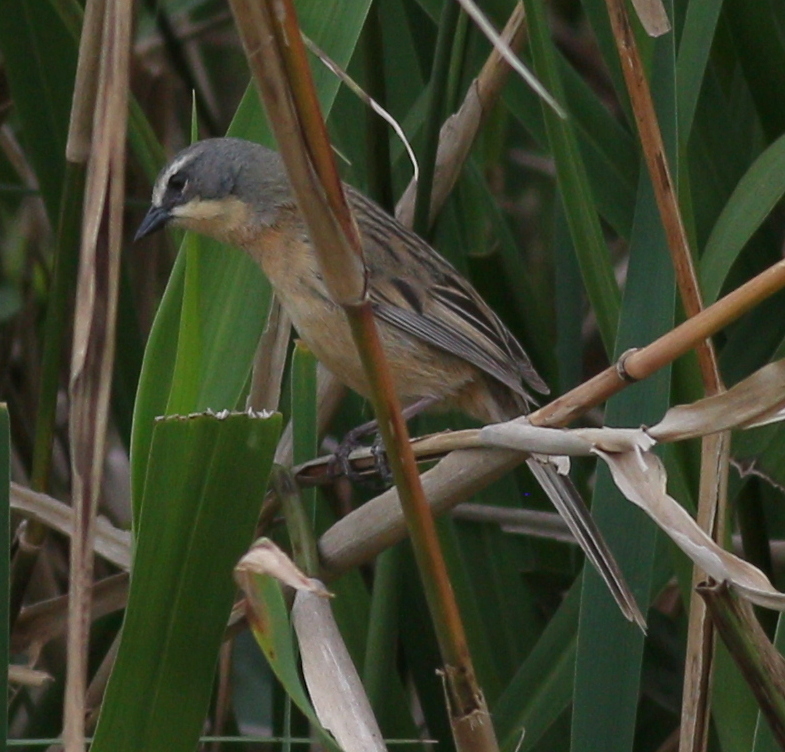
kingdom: Animalia
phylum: Chordata
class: Aves
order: Passeriformes
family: Thraupidae
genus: Donacospiza
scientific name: Donacospiza albifrons
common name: Long-tailed reed finch
